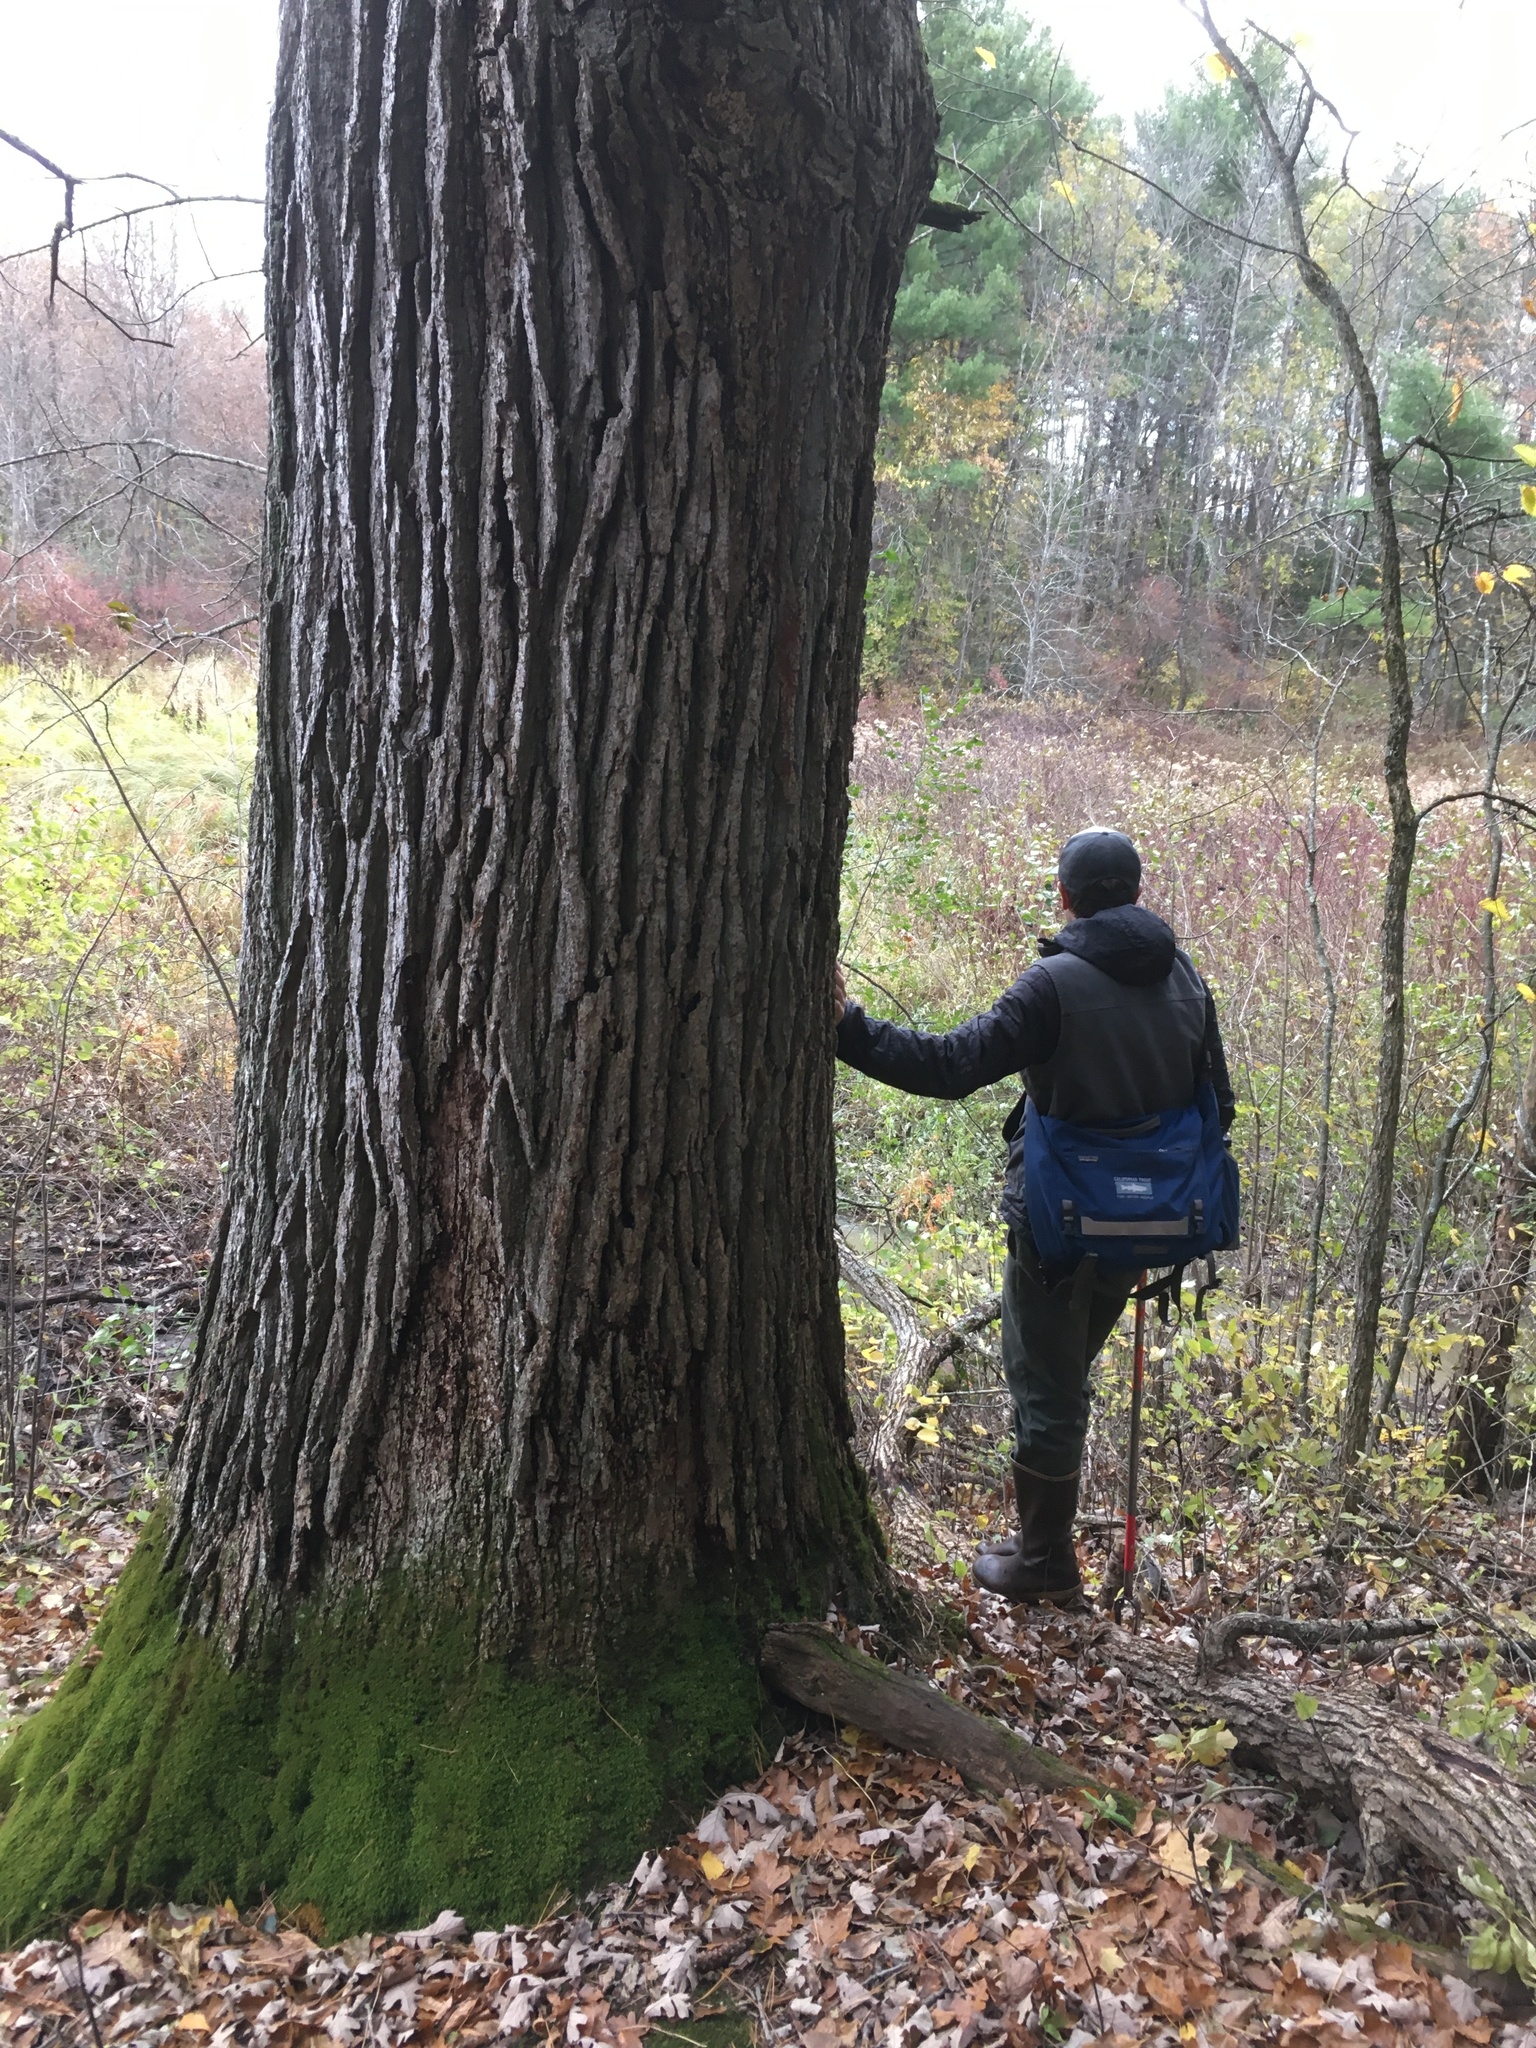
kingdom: Plantae
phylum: Tracheophyta
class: Magnoliopsida
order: Fagales
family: Fagaceae
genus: Quercus
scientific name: Quercus macrocarpa
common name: Bur oak
